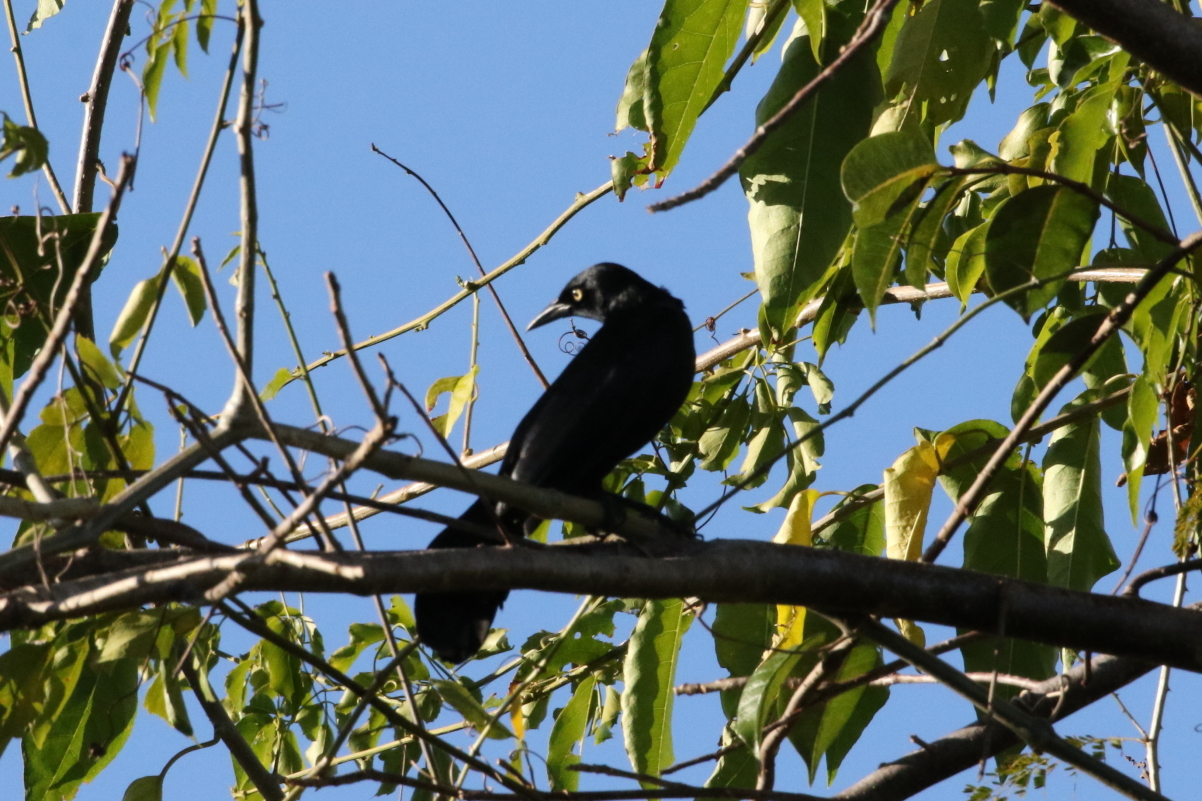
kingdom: Animalia
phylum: Chordata
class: Aves
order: Passeriformes
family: Icteridae
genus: Quiscalus
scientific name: Quiscalus niger
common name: Greater antillean grackle
